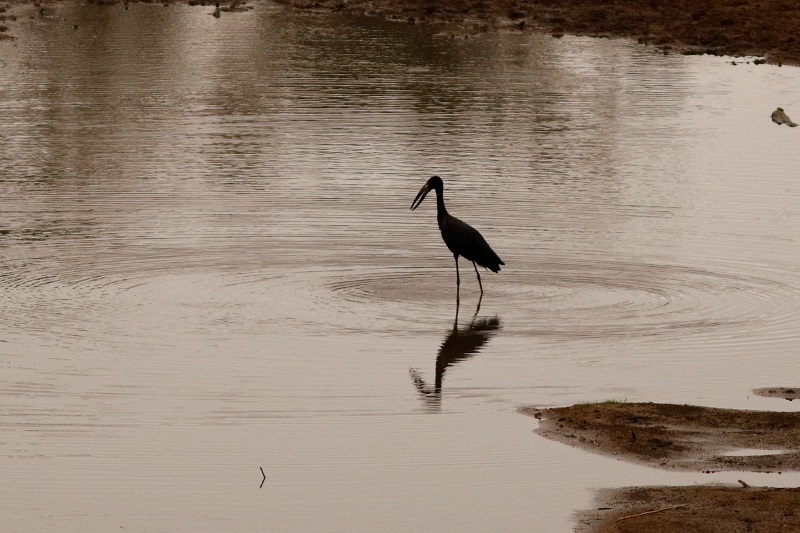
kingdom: Animalia
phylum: Chordata
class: Aves
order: Ciconiiformes
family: Ciconiidae
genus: Anastomus
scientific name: Anastomus lamelligerus
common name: African openbill
